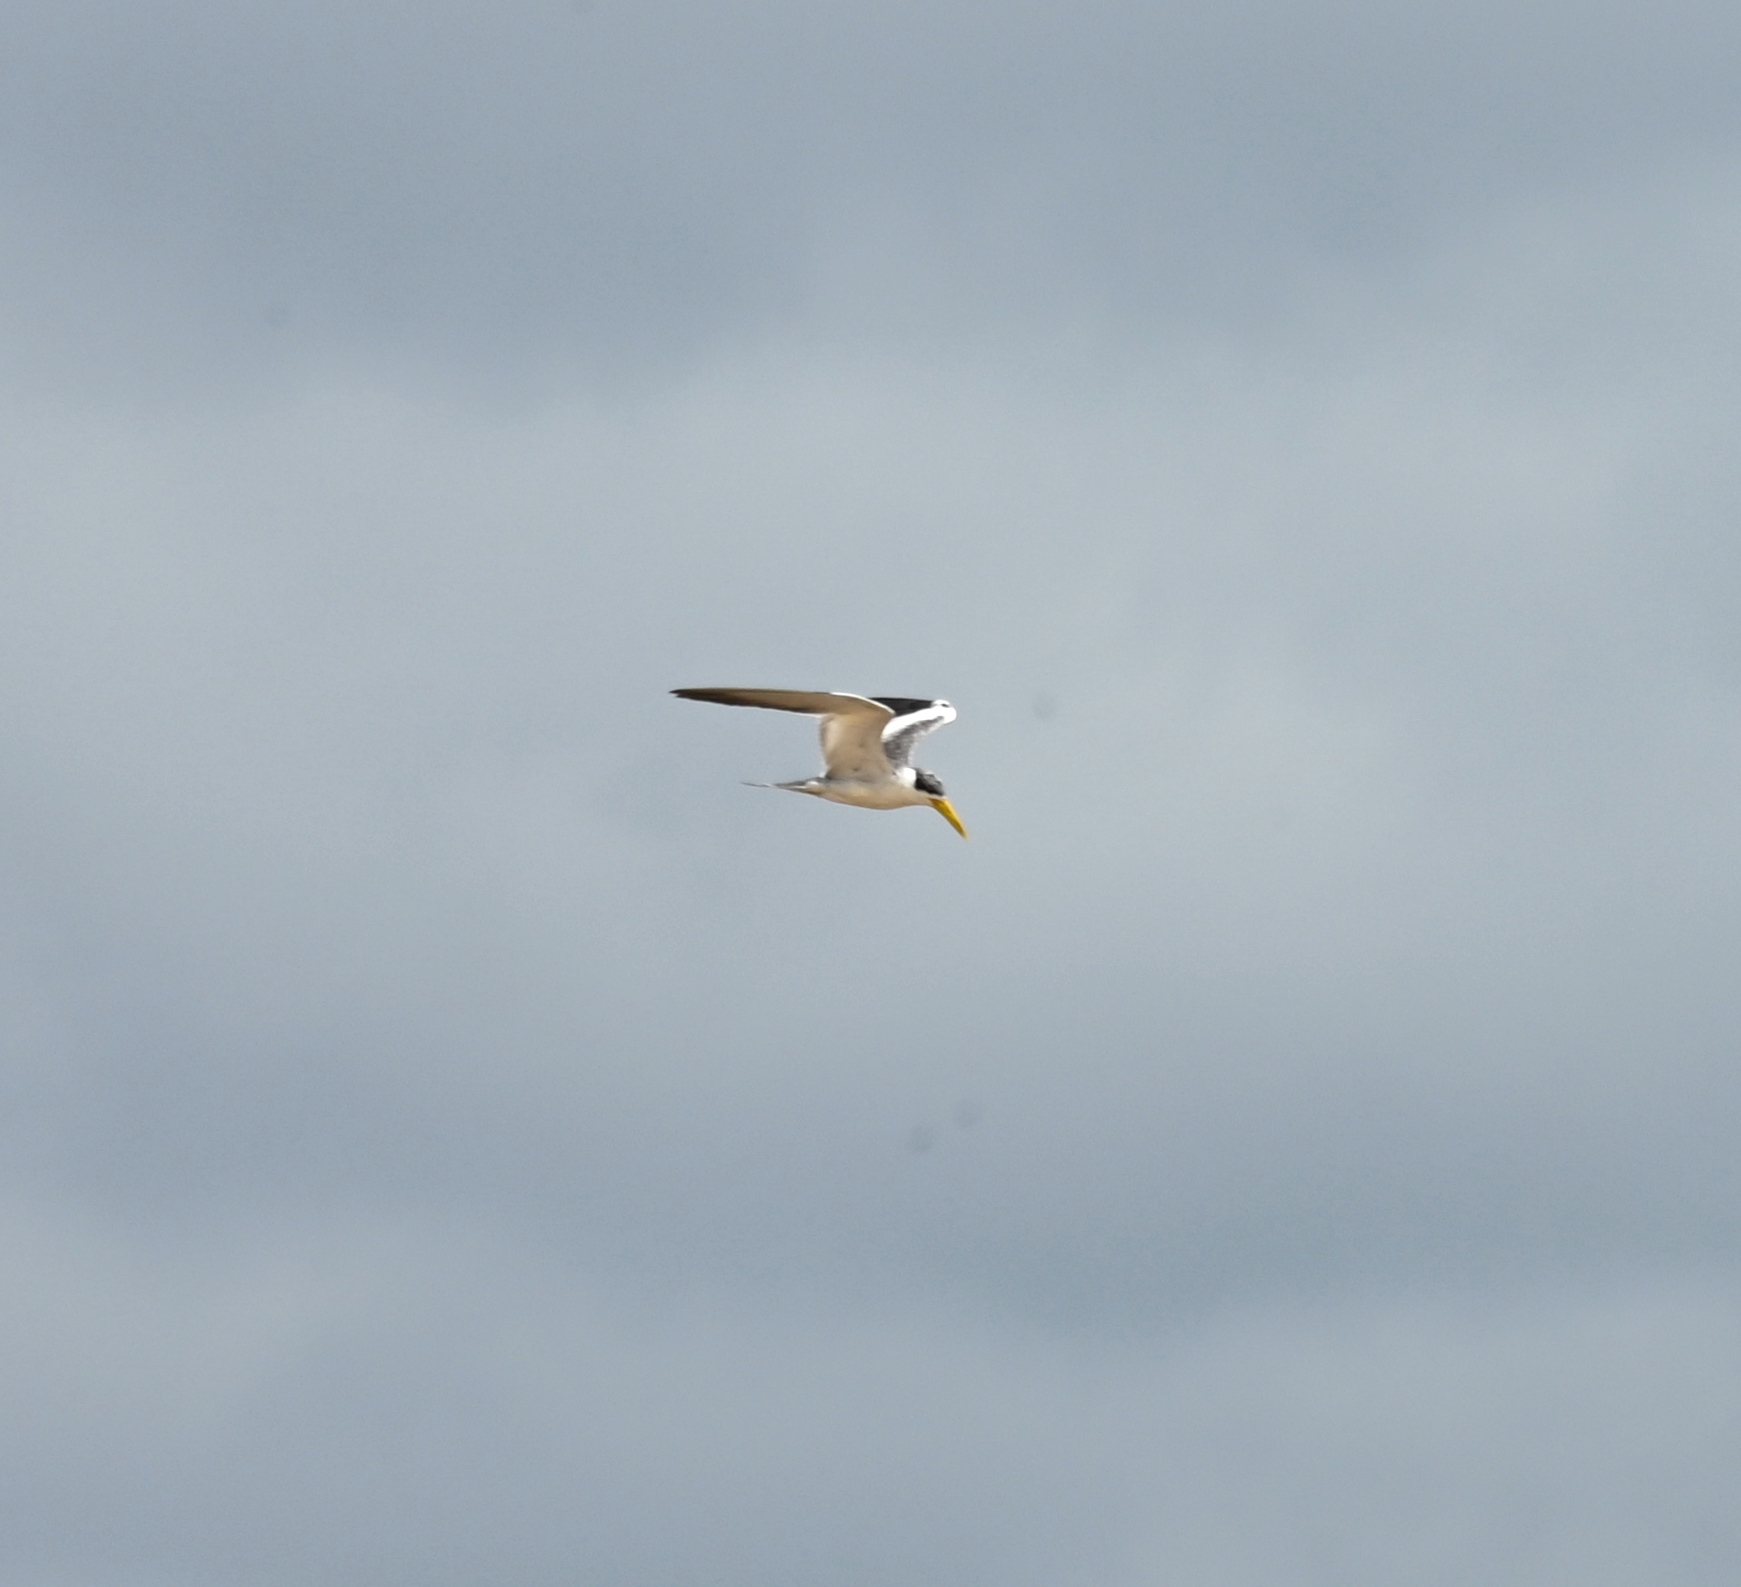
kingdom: Animalia
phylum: Chordata
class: Aves
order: Charadriiformes
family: Laridae
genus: Phaetusa
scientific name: Phaetusa simplex
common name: Large-billed tern
